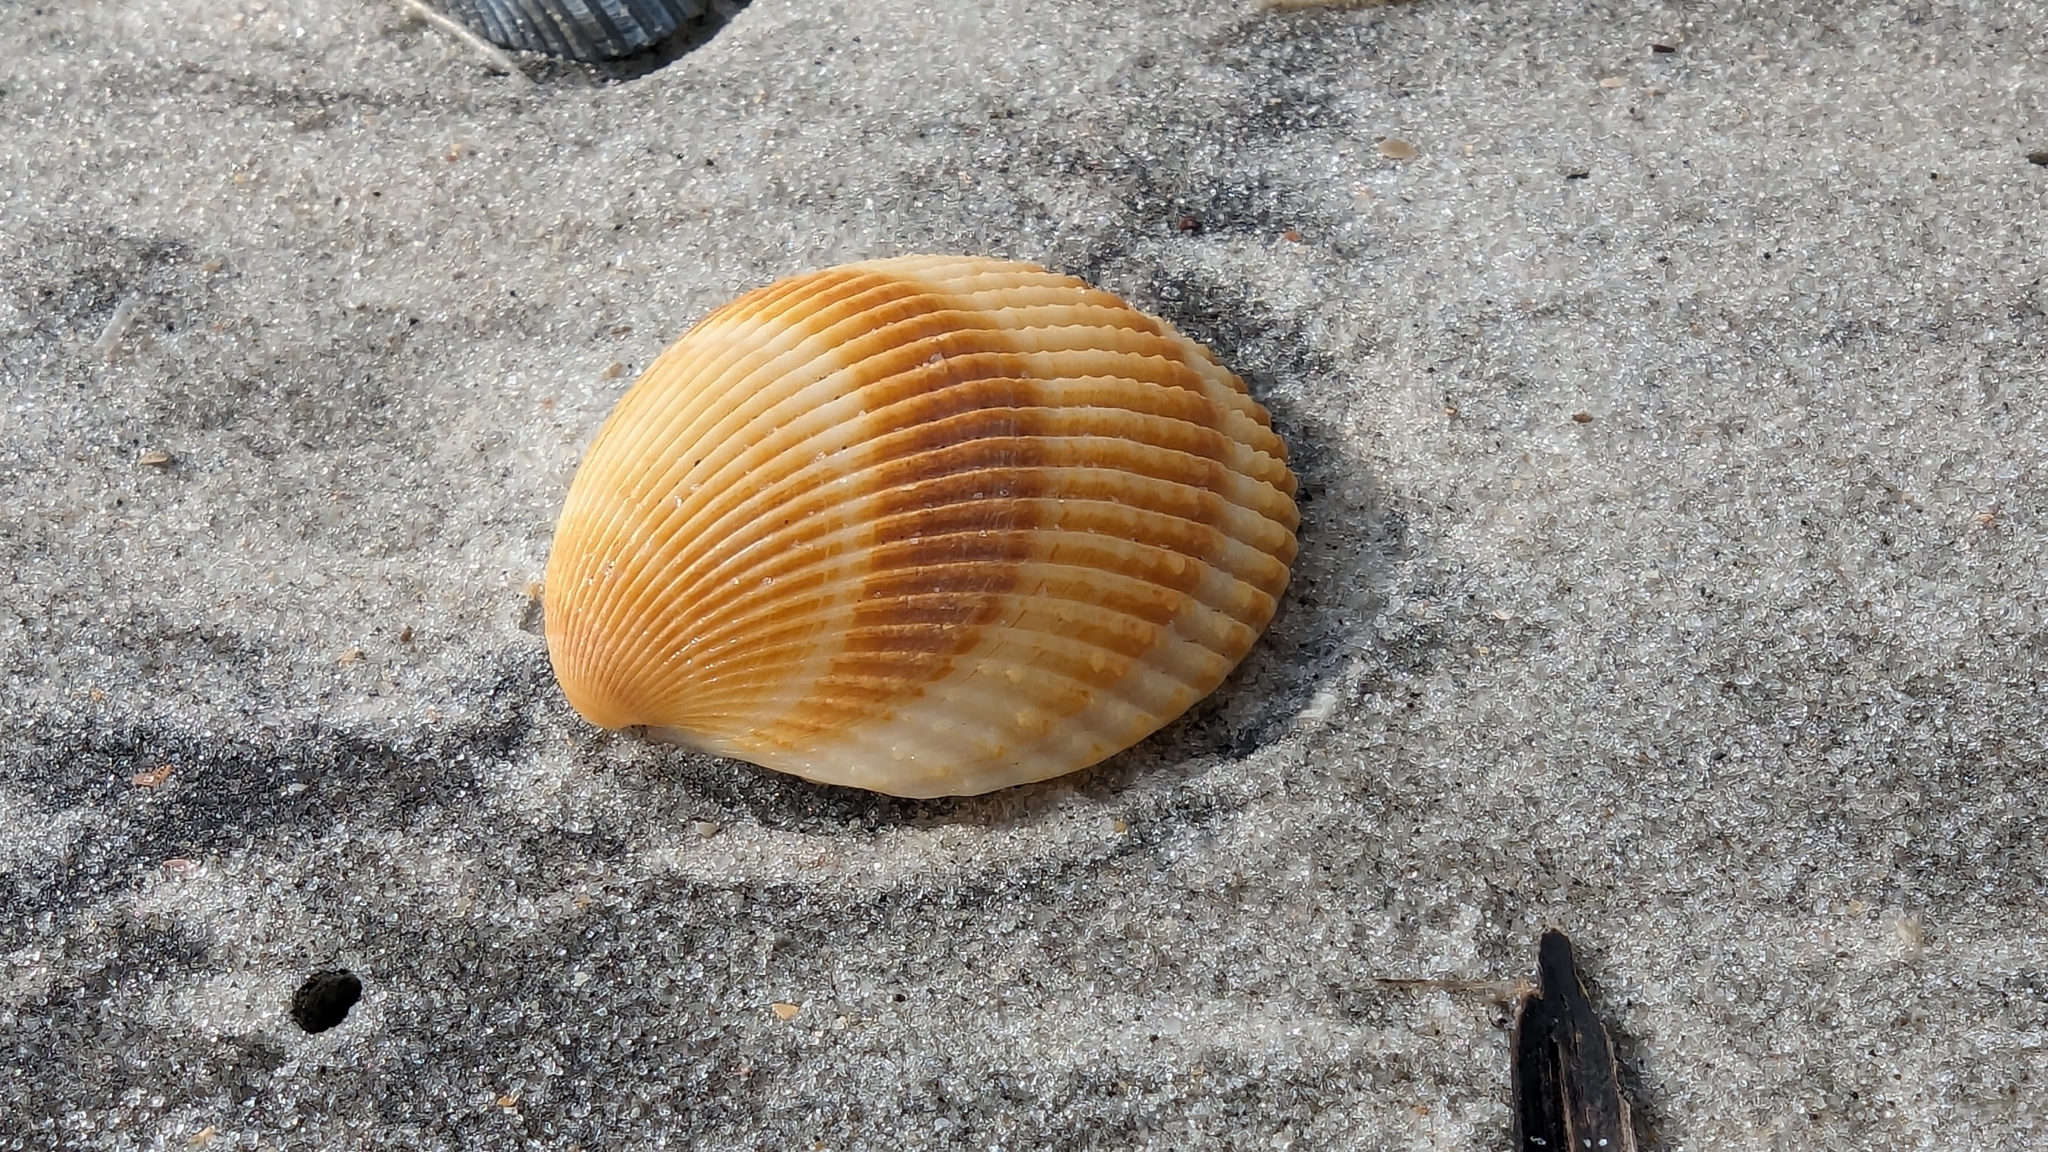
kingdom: Animalia
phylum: Mollusca
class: Bivalvia
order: Cardiida
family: Cardiidae
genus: Dallocardia
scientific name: Dallocardia muricata
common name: Yellow pricklycockle
